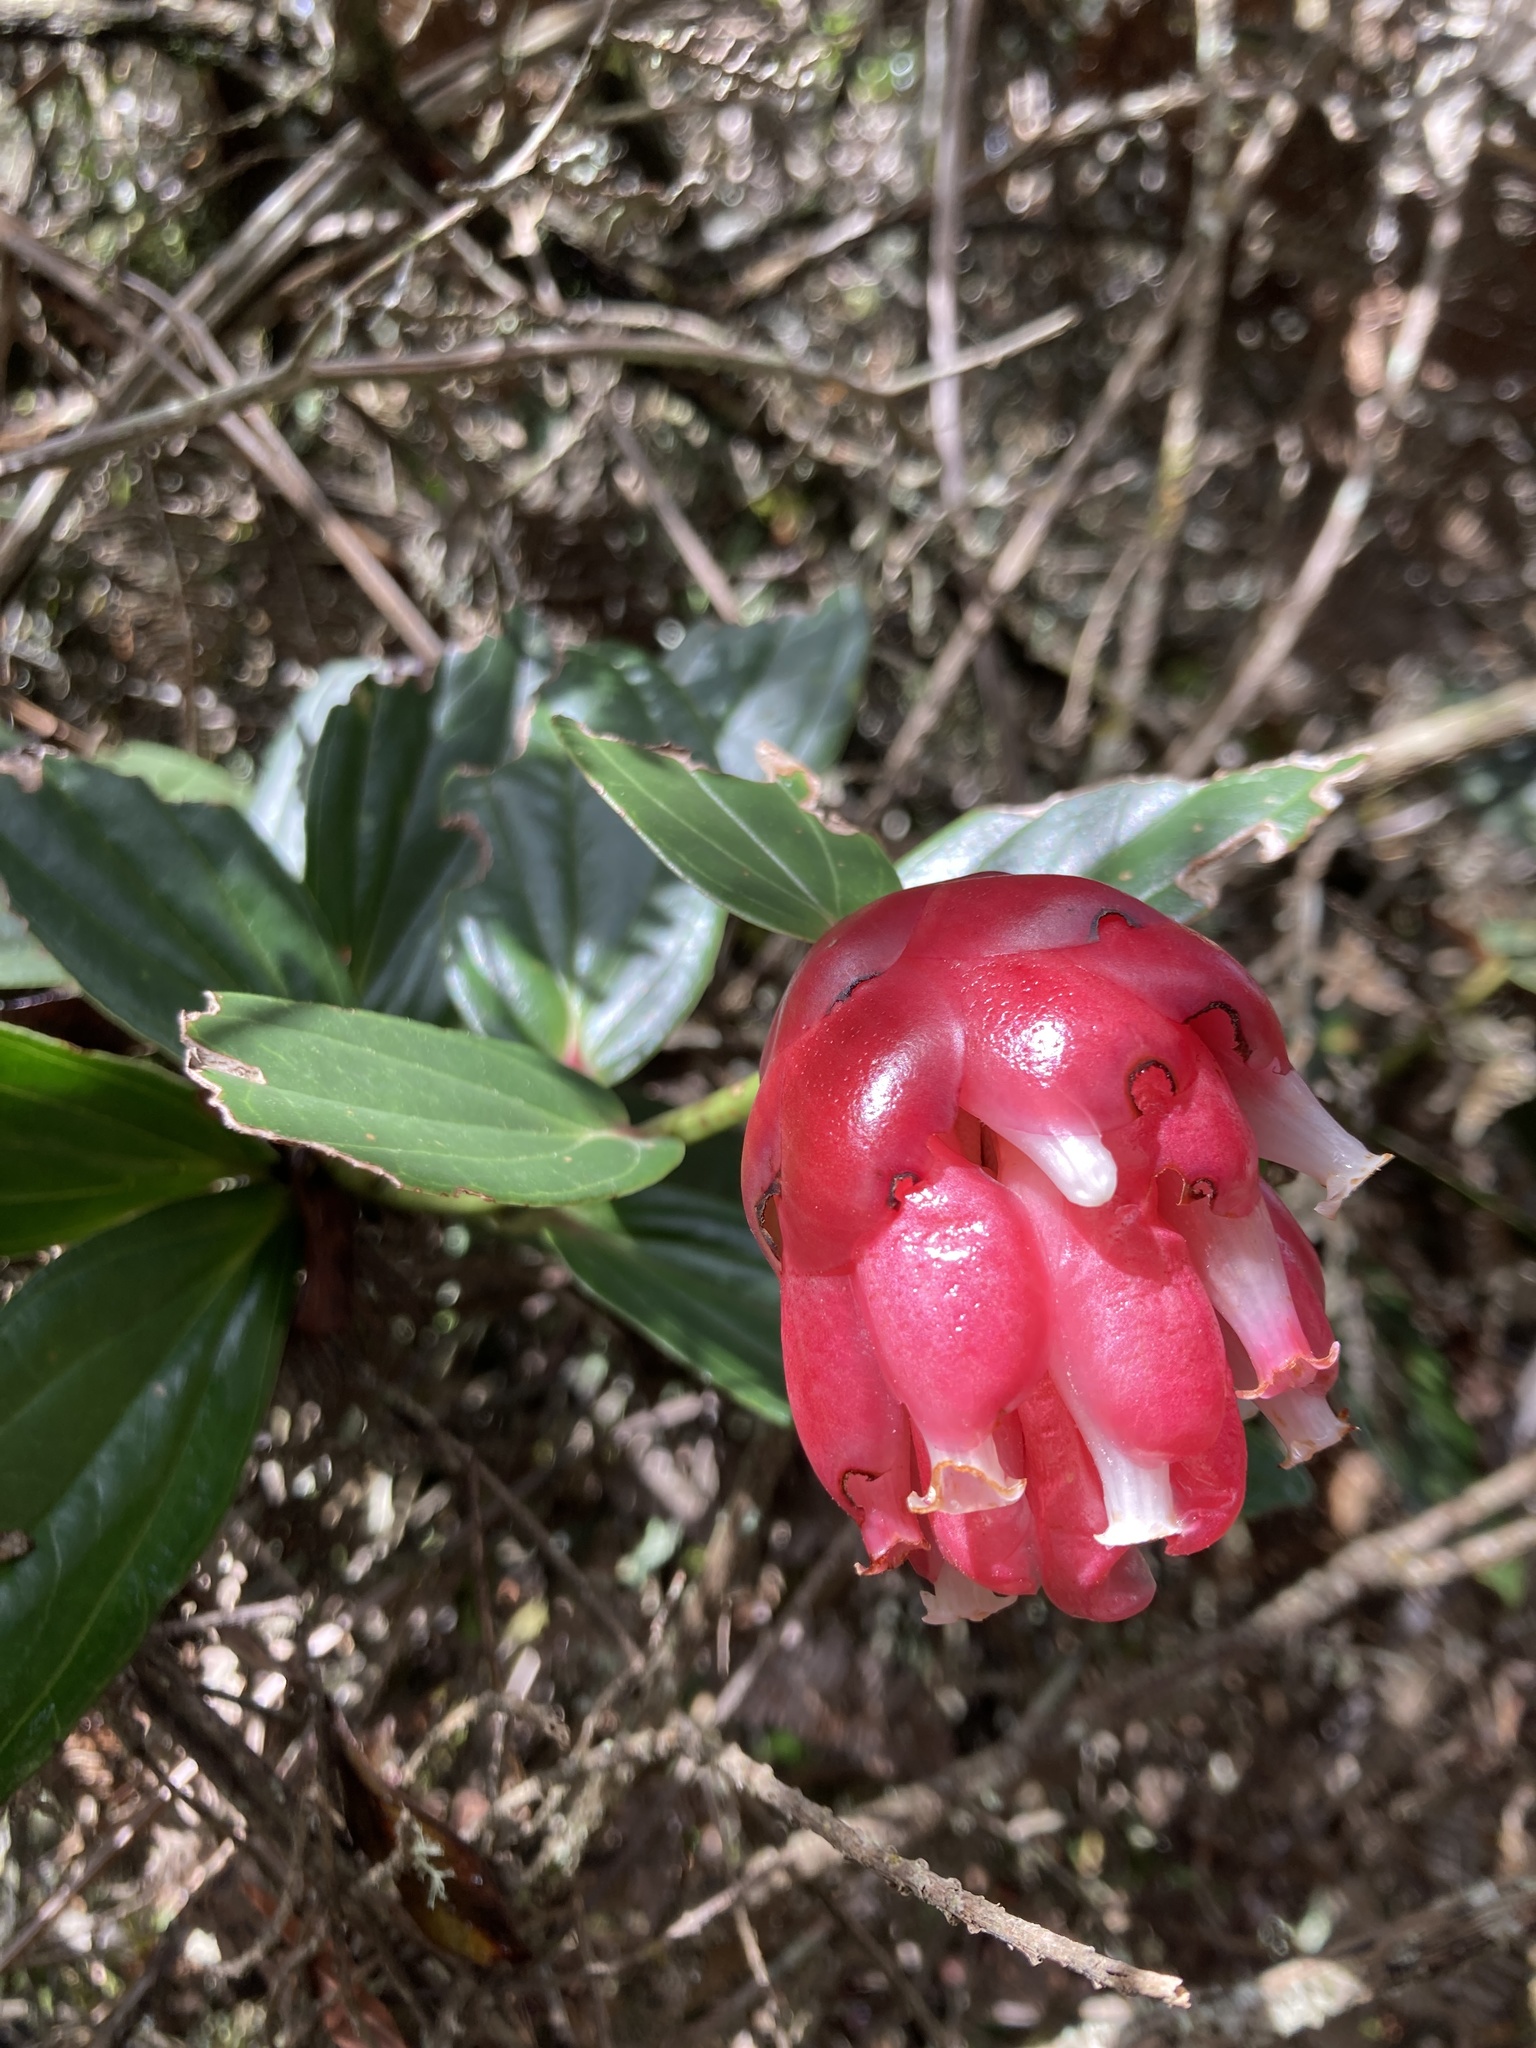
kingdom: Plantae
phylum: Tracheophyta
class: Magnoliopsida
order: Ericales
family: Ericaceae
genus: Cavendishia
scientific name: Cavendishia nitida
